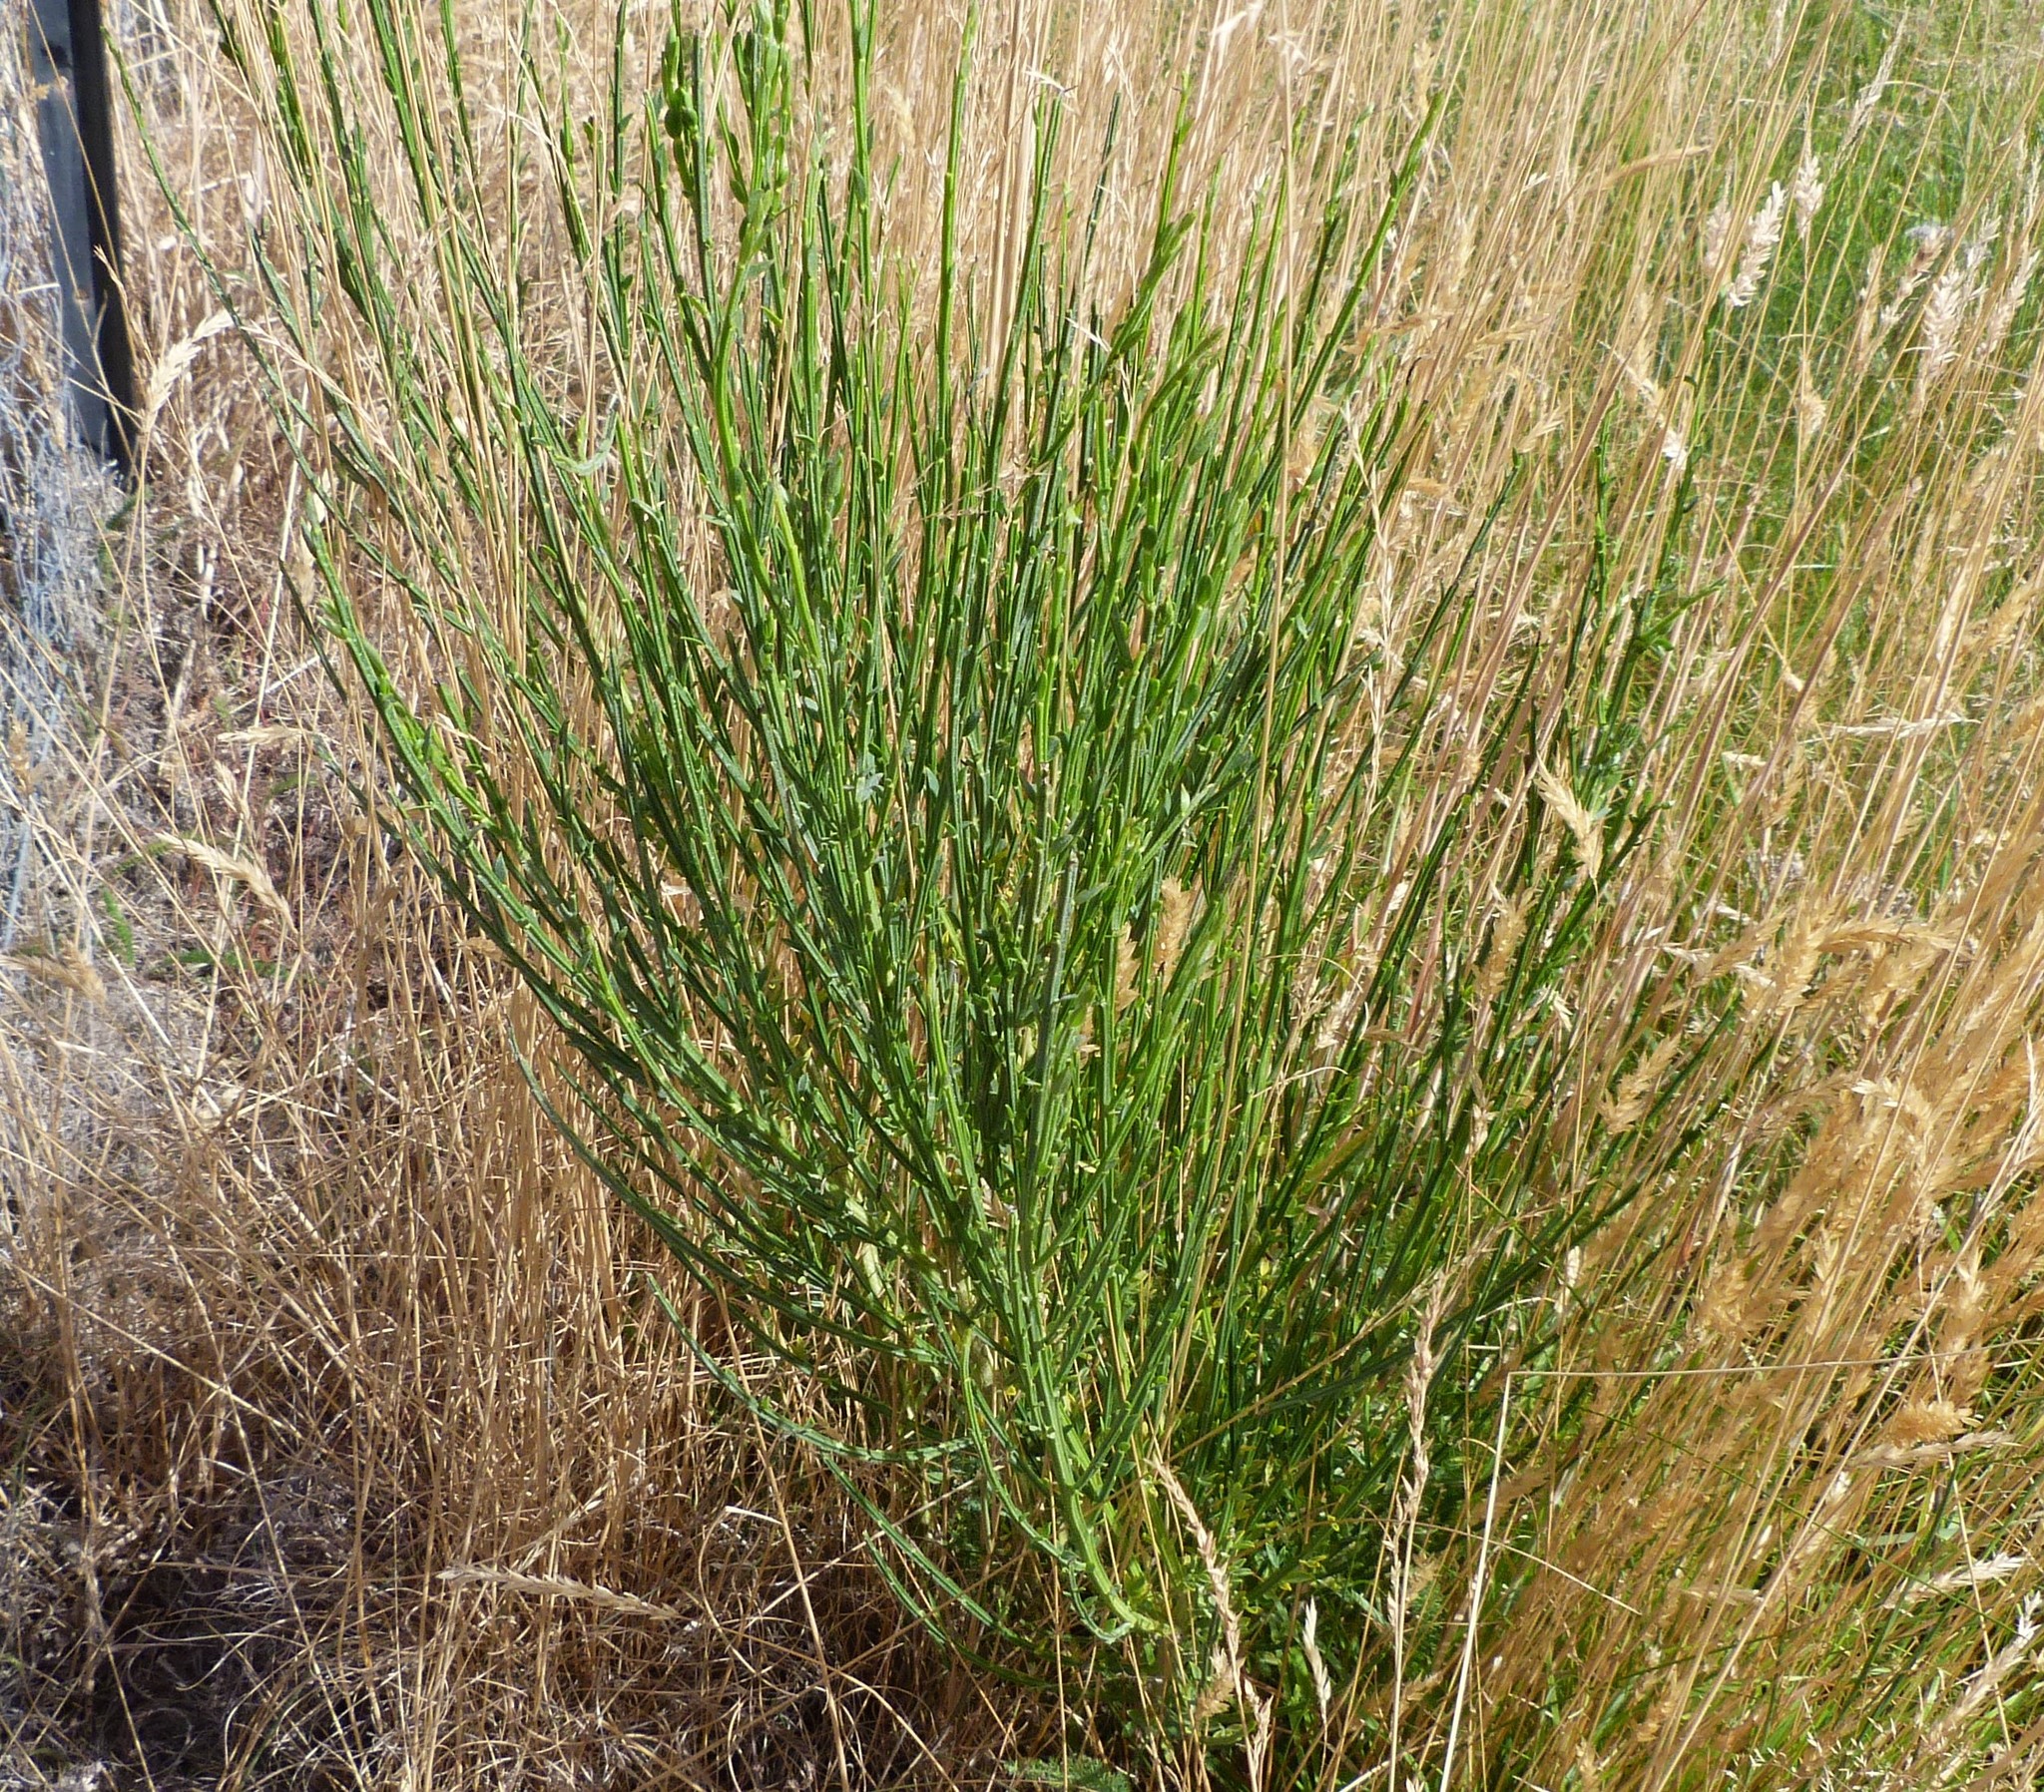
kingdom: Plantae
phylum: Tracheophyta
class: Magnoliopsida
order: Fabales
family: Fabaceae
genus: Cytisus
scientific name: Cytisus scoparius
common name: Scotch broom
